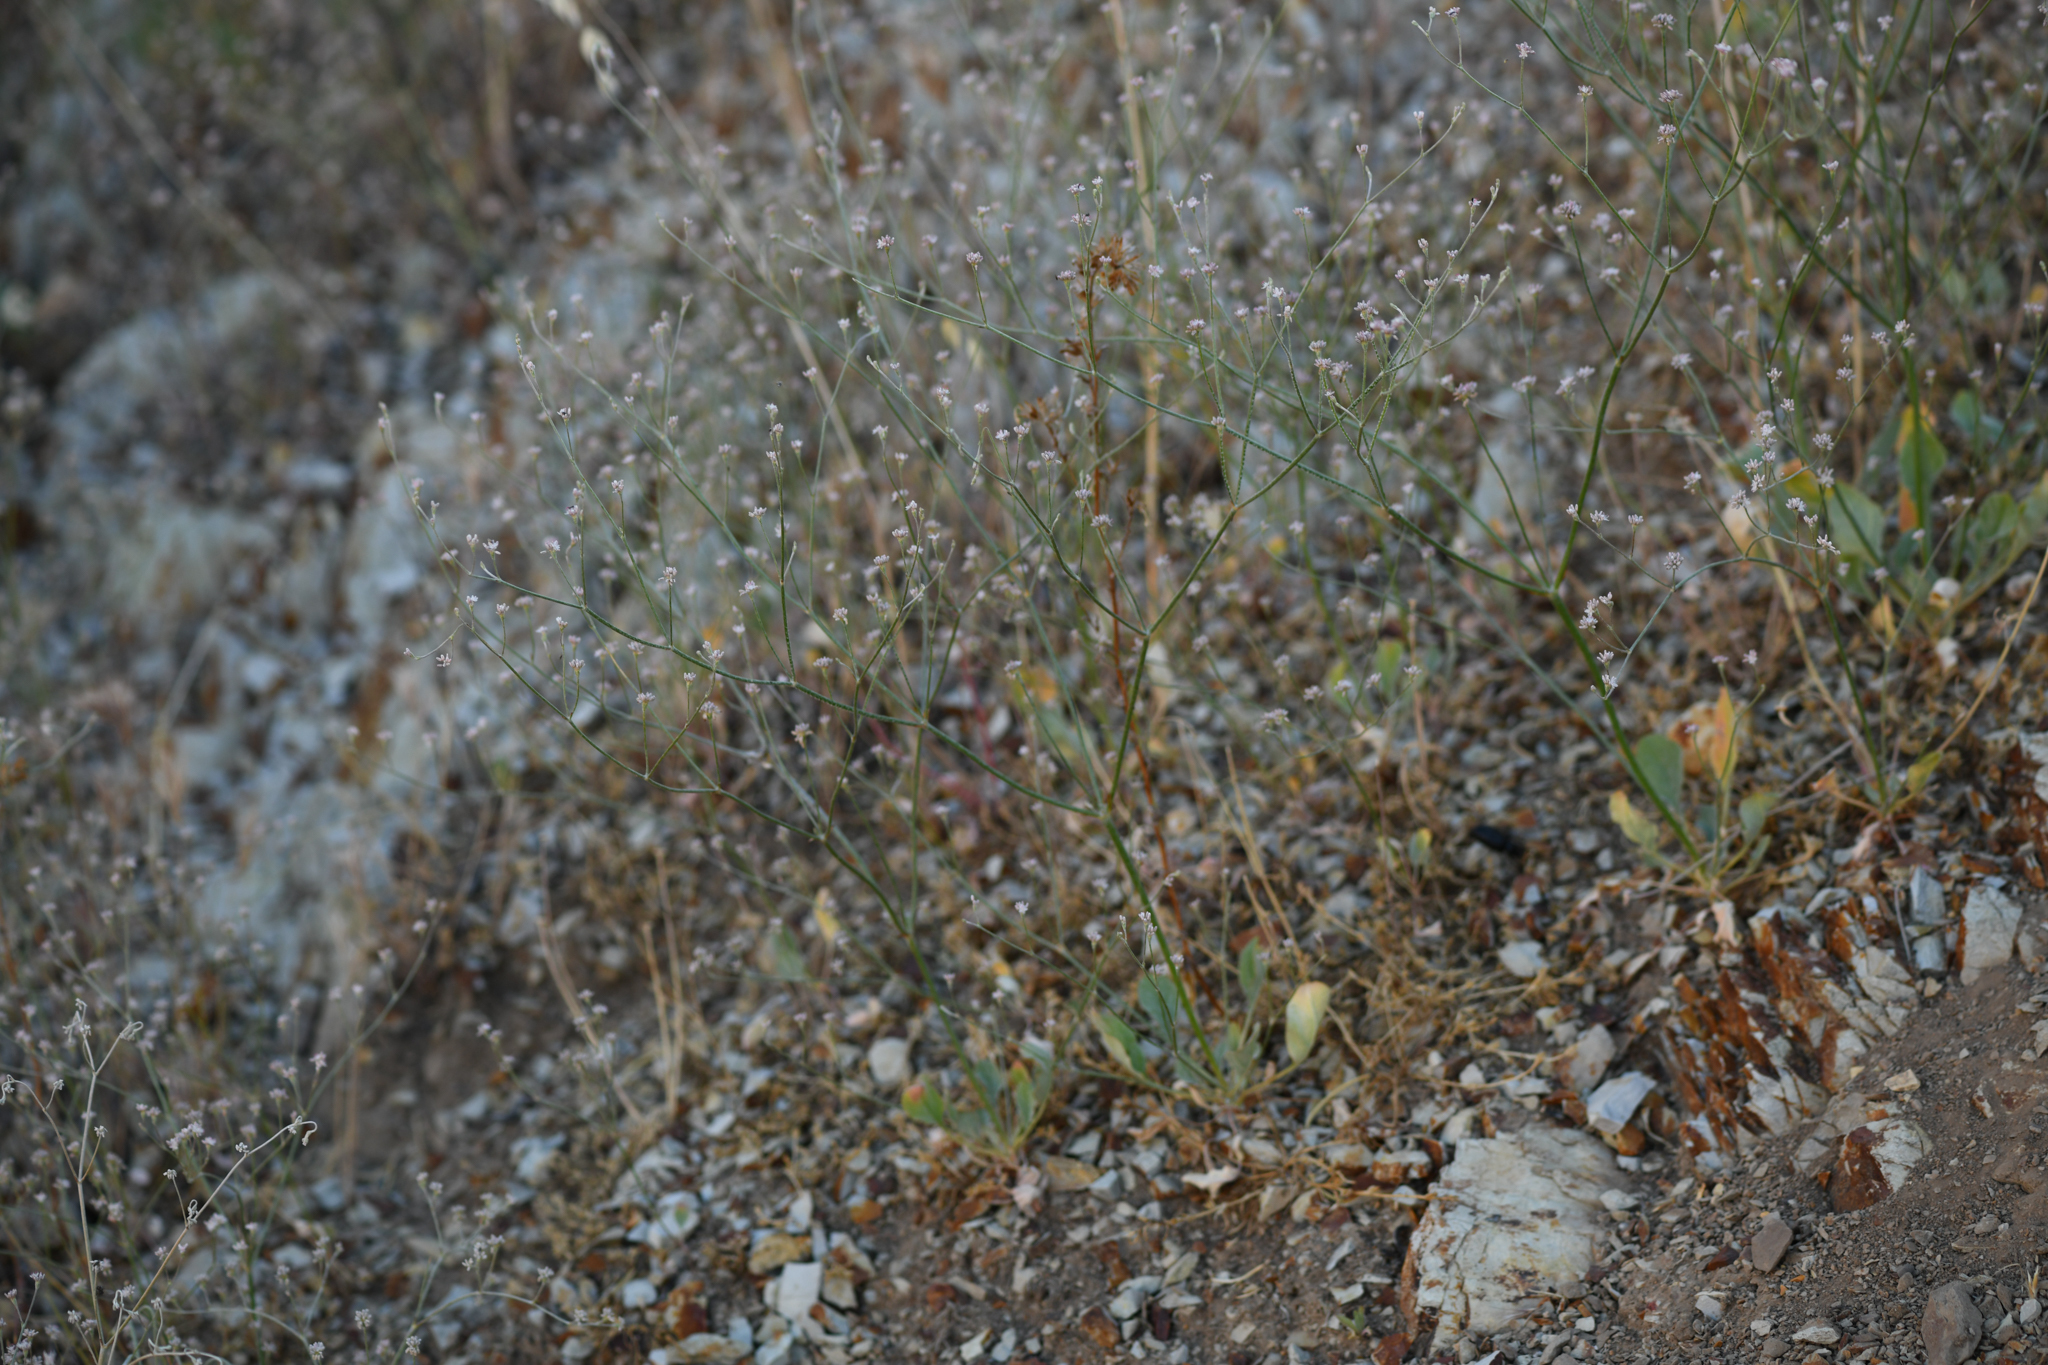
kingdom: Plantae
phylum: Tracheophyta
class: Magnoliopsida
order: Caryophyllales
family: Polygonaceae
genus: Eriogonum
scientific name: Eriogonum temblorense
